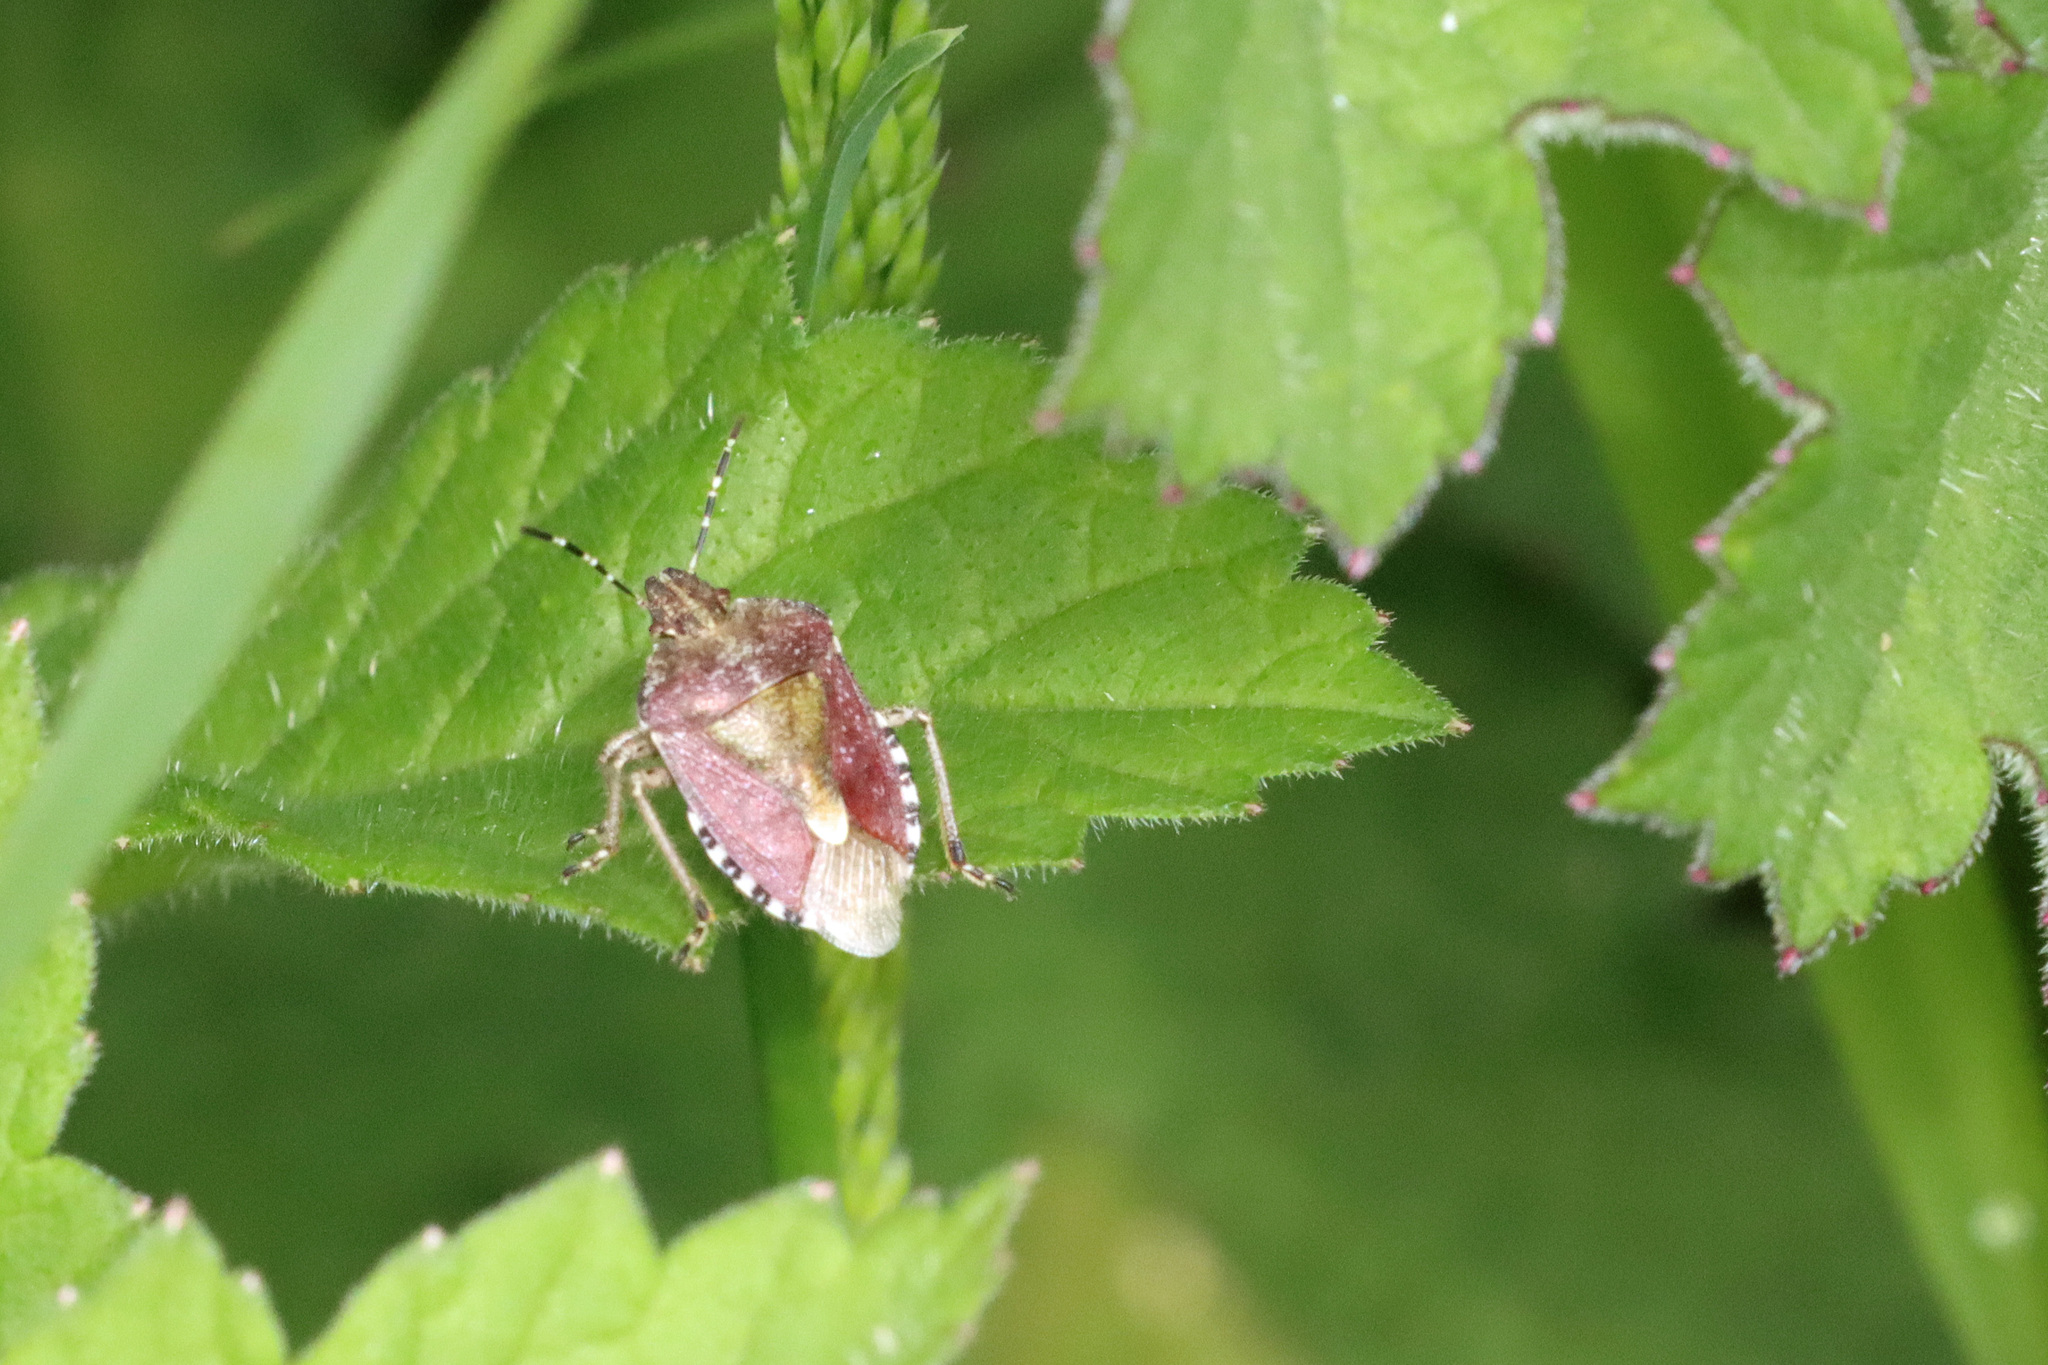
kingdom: Animalia
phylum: Arthropoda
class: Insecta
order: Hemiptera
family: Pentatomidae
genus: Dolycoris
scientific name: Dolycoris baccarum
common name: Sloe bug
